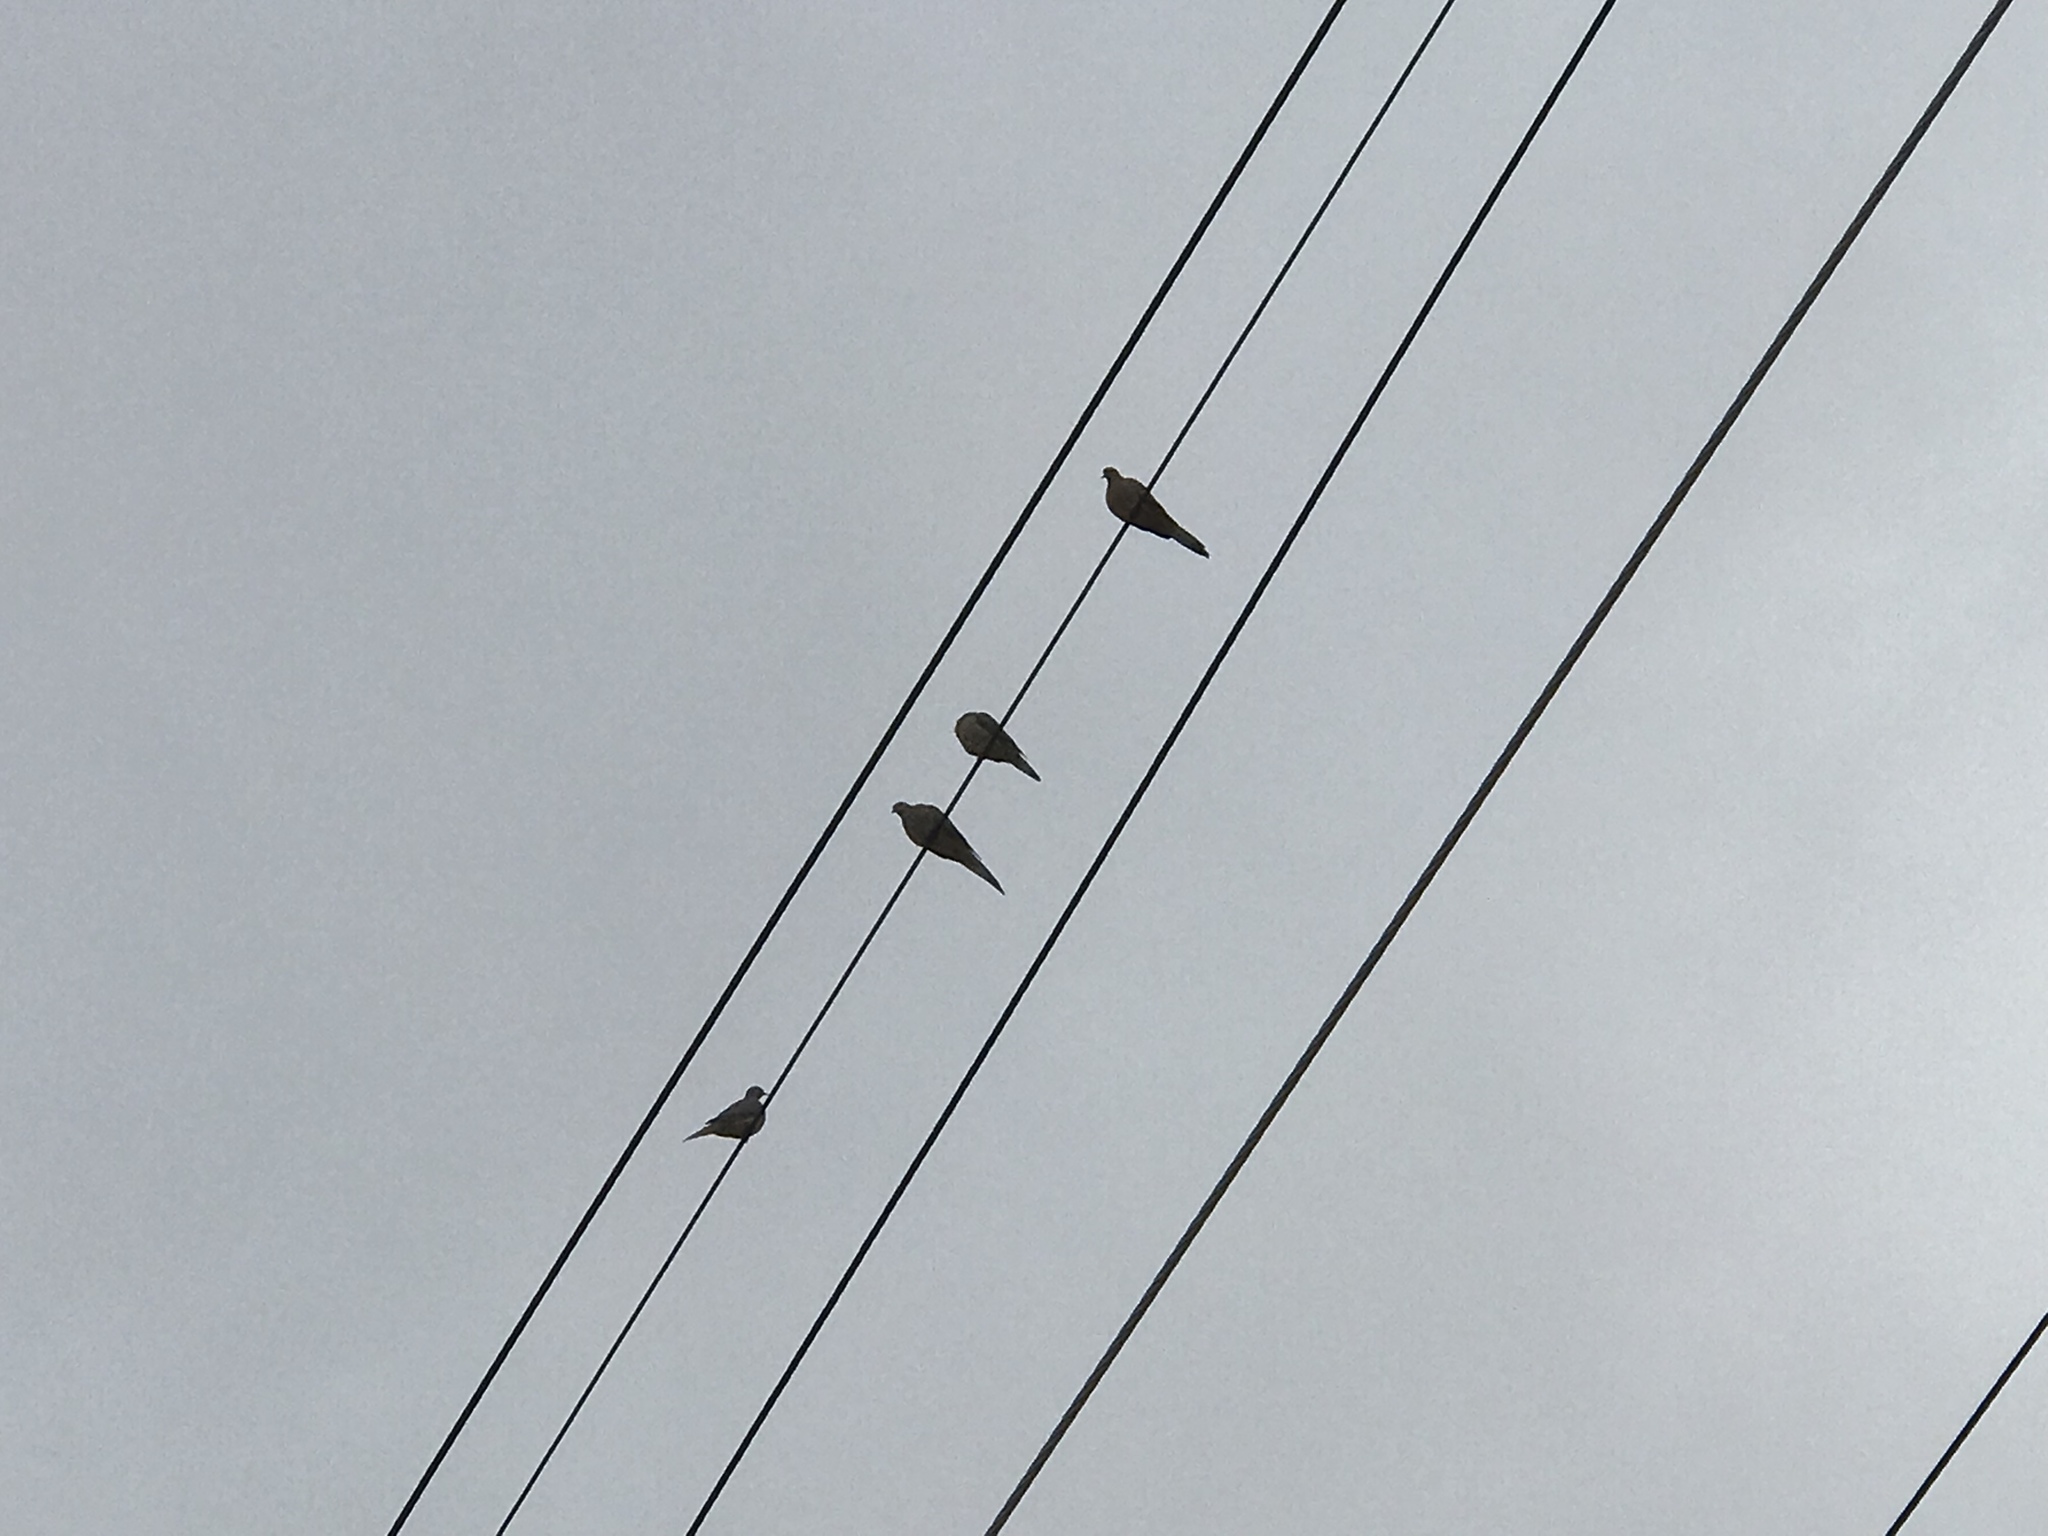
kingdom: Animalia
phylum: Chordata
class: Aves
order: Columbiformes
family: Columbidae
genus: Zenaida
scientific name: Zenaida macroura
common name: Mourning dove
